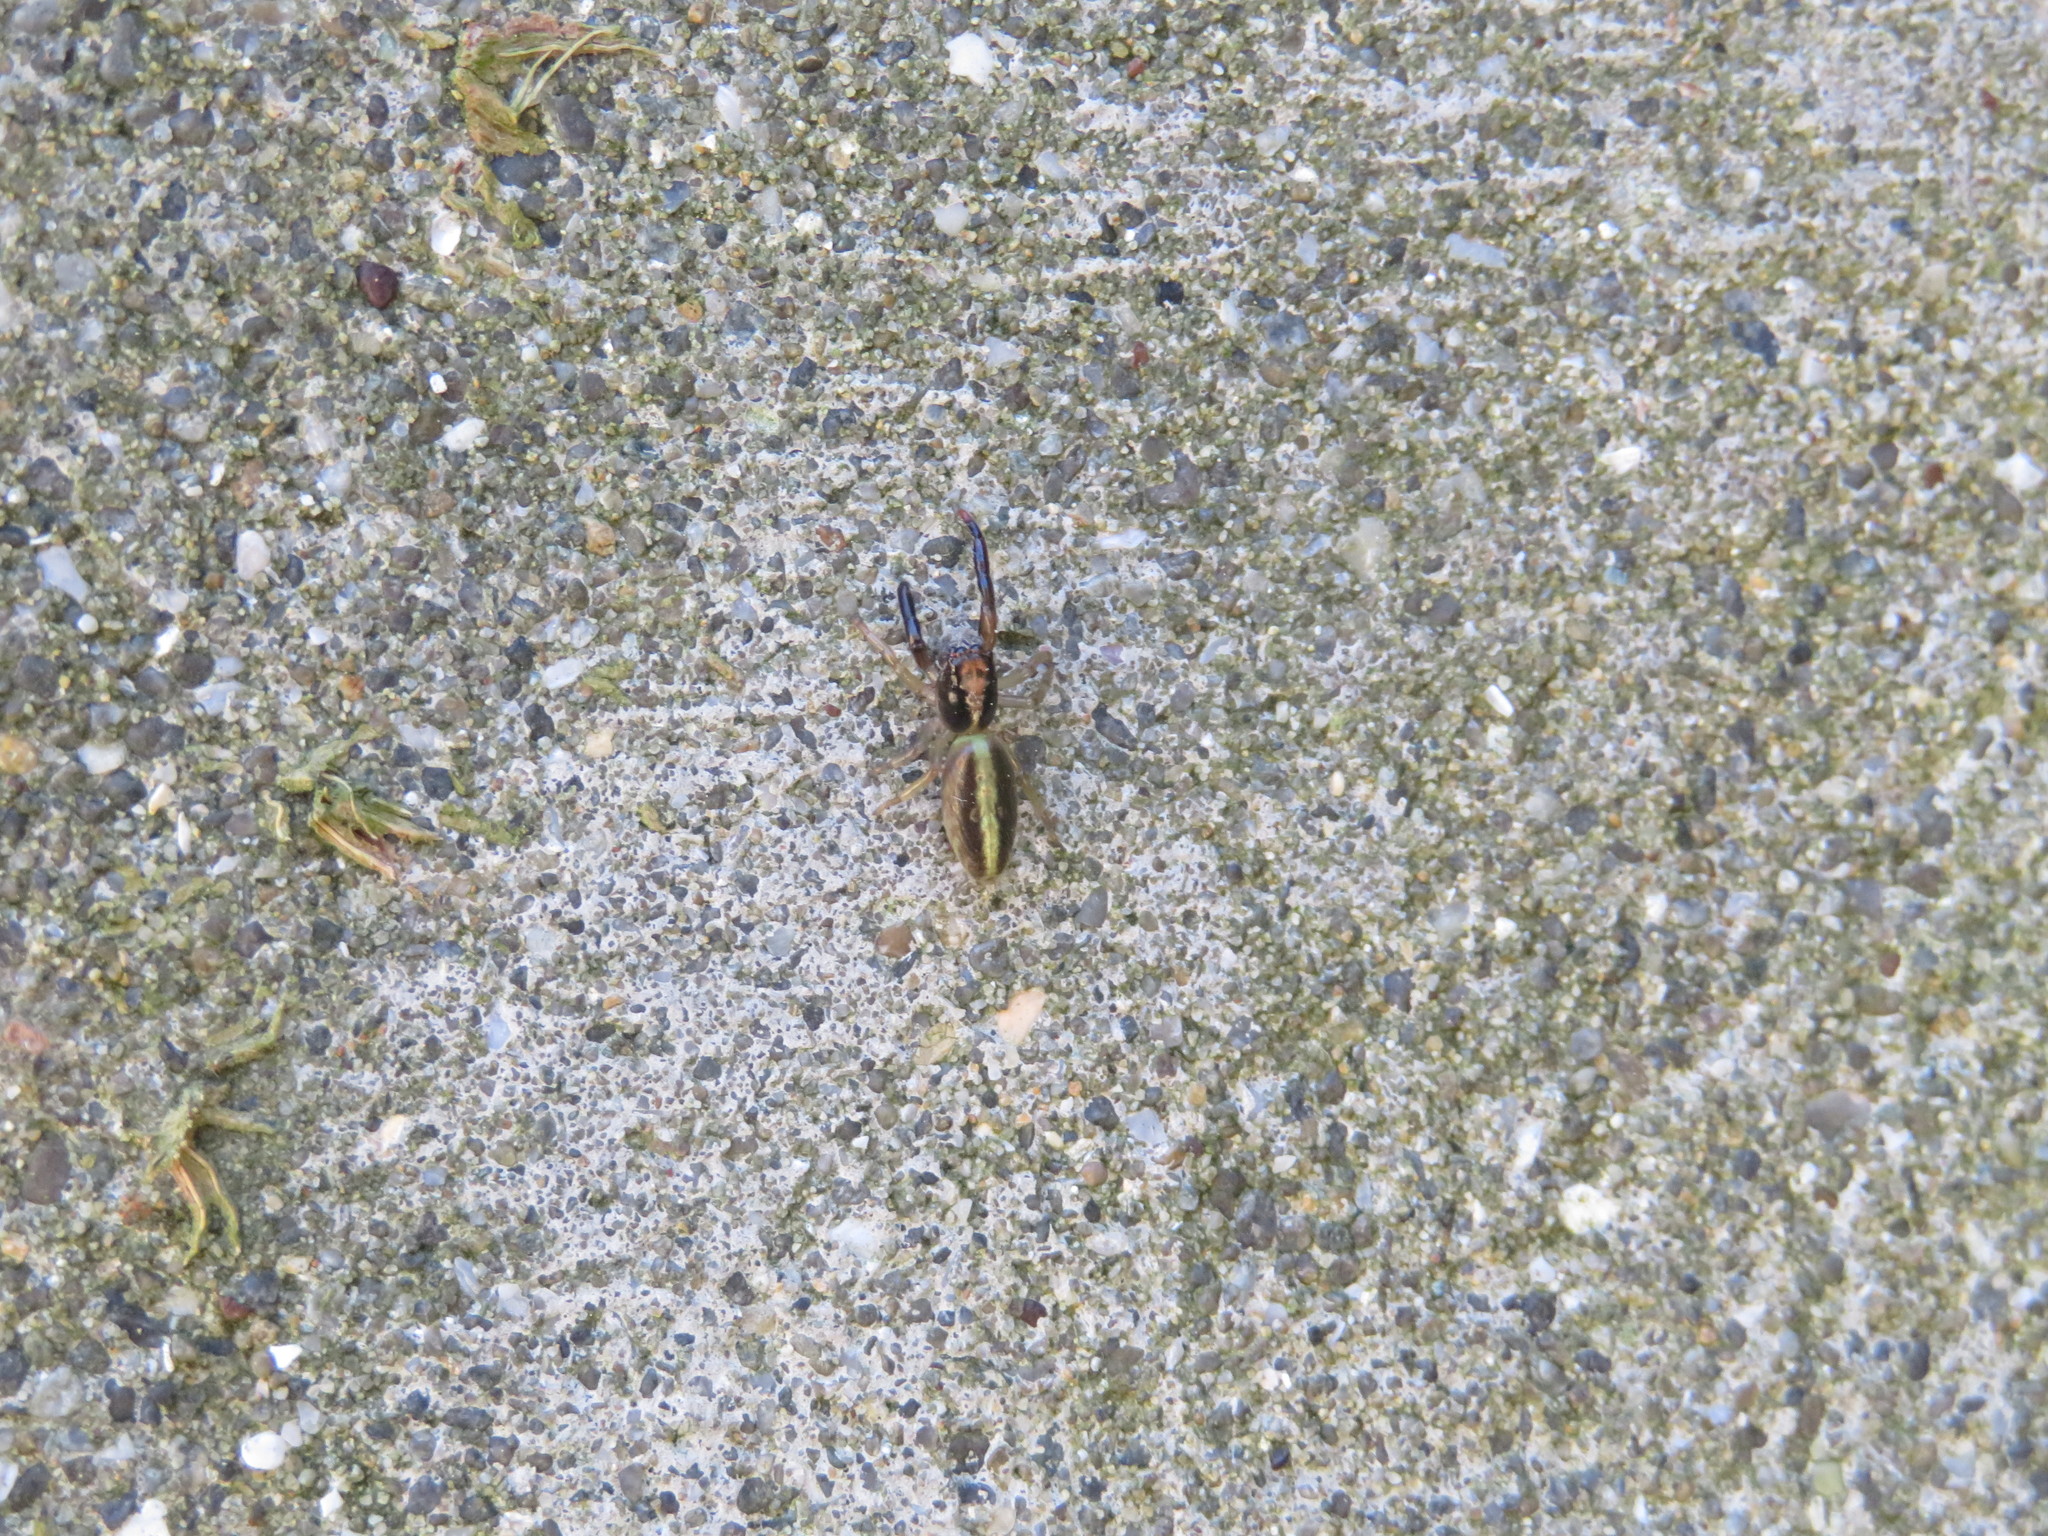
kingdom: Animalia
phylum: Arthropoda
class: Arachnida
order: Araneae
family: Salticidae
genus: Trite
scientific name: Trite planiceps
